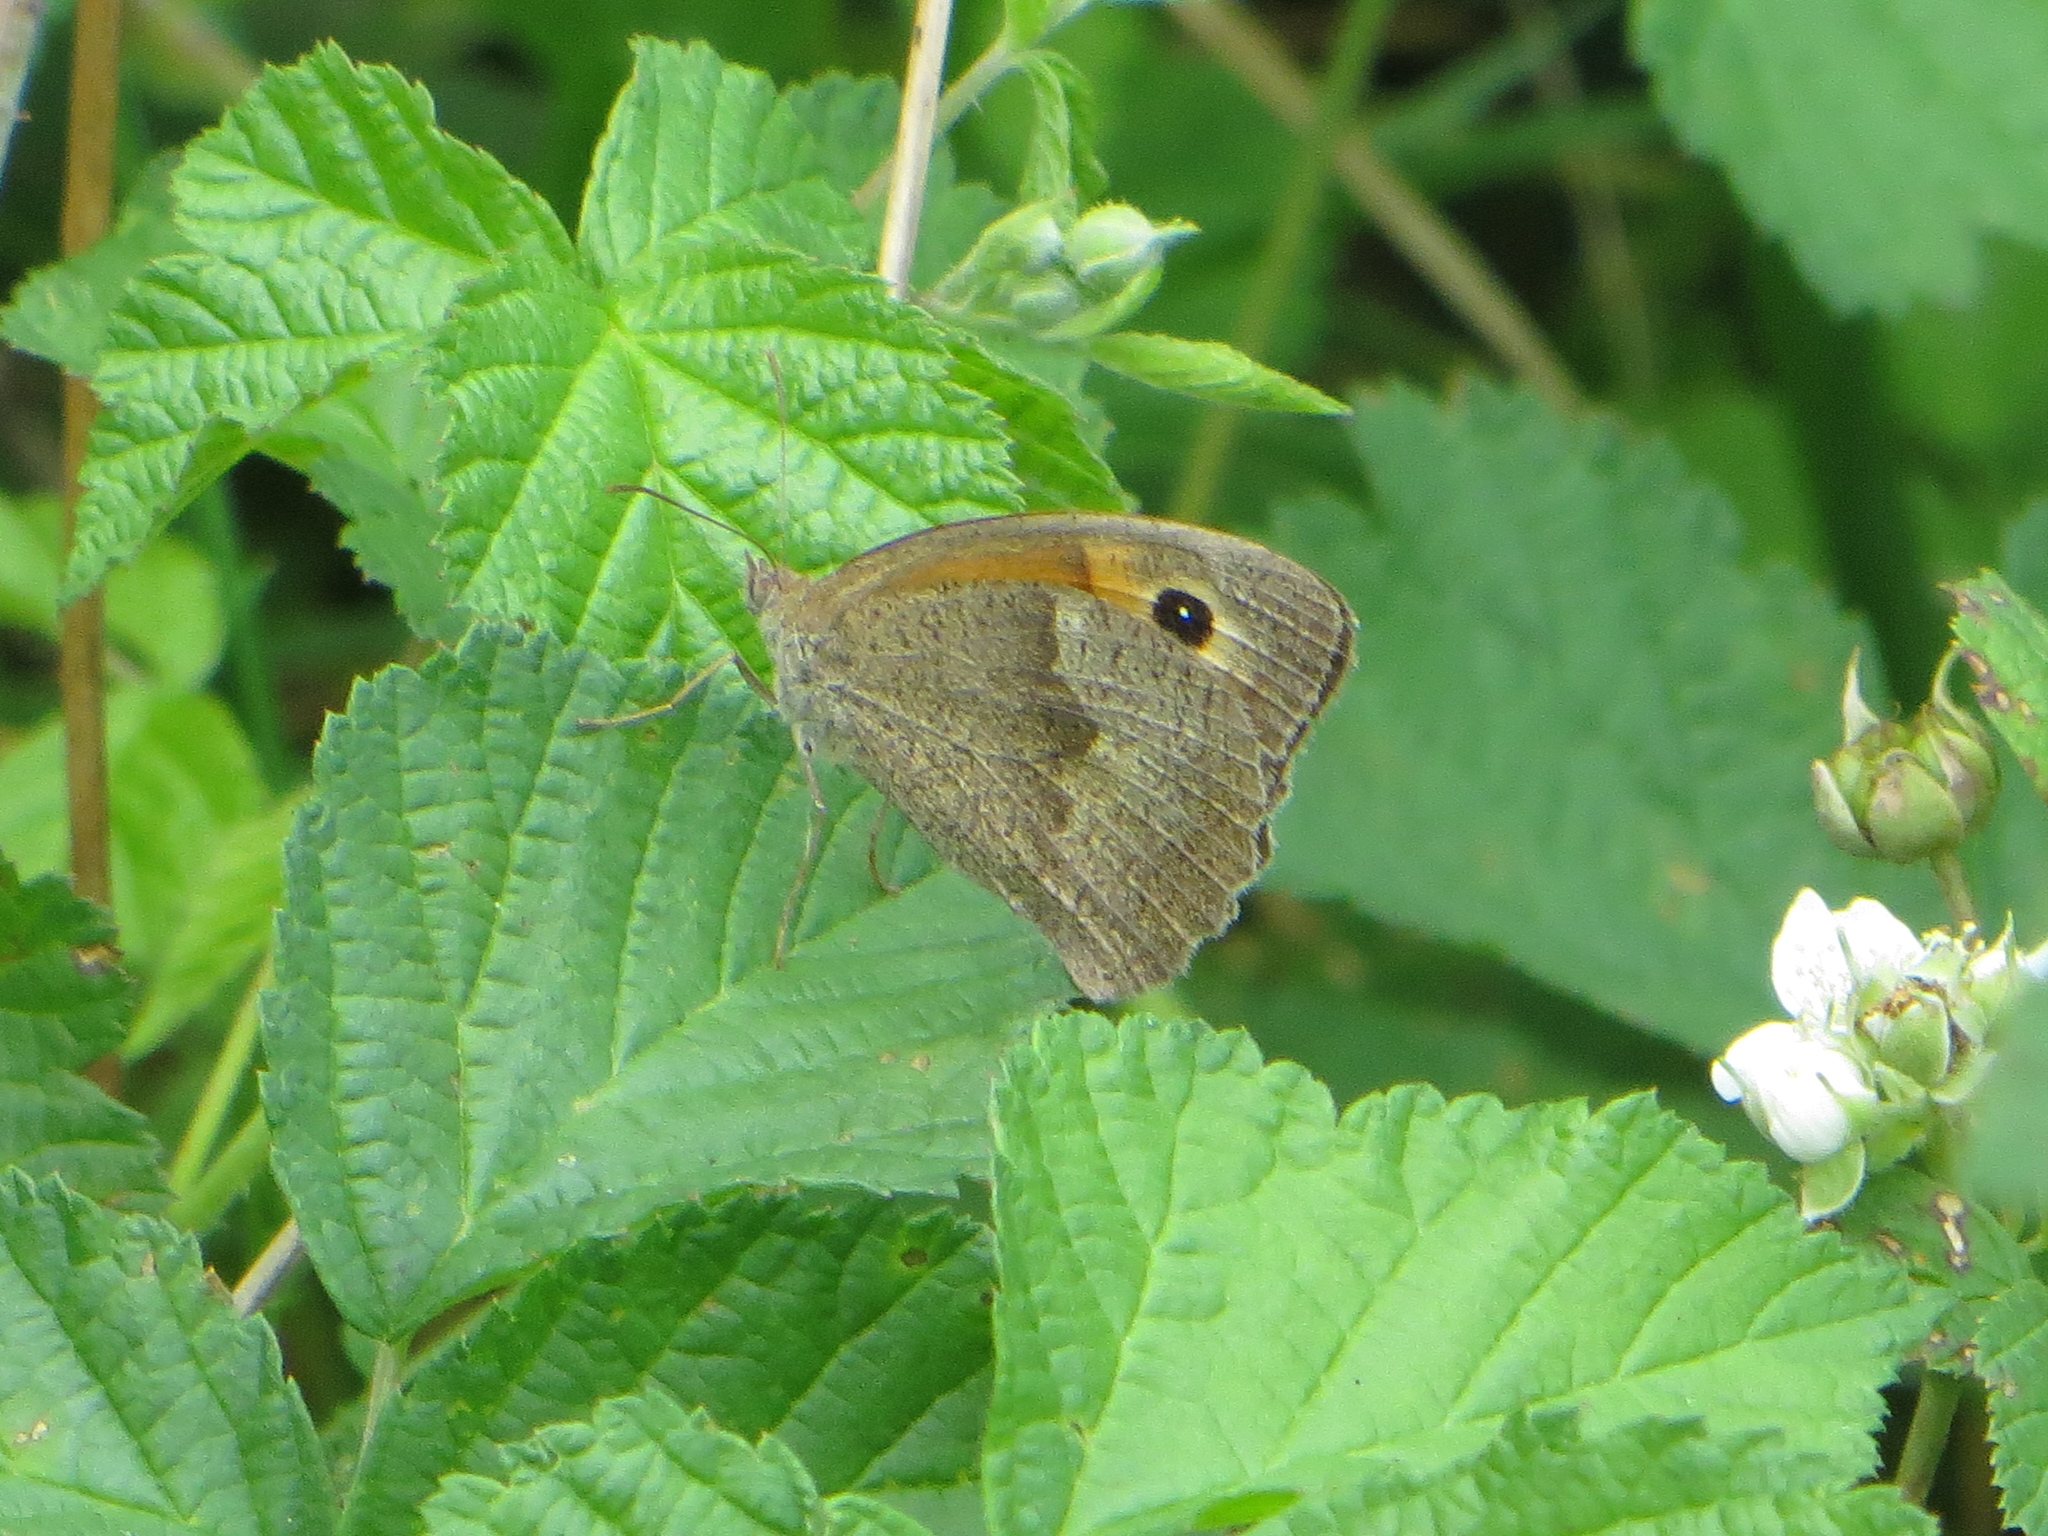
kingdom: Animalia
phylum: Arthropoda
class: Insecta
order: Lepidoptera
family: Nymphalidae
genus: Maniola
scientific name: Maniola jurtina
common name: Meadow brown
